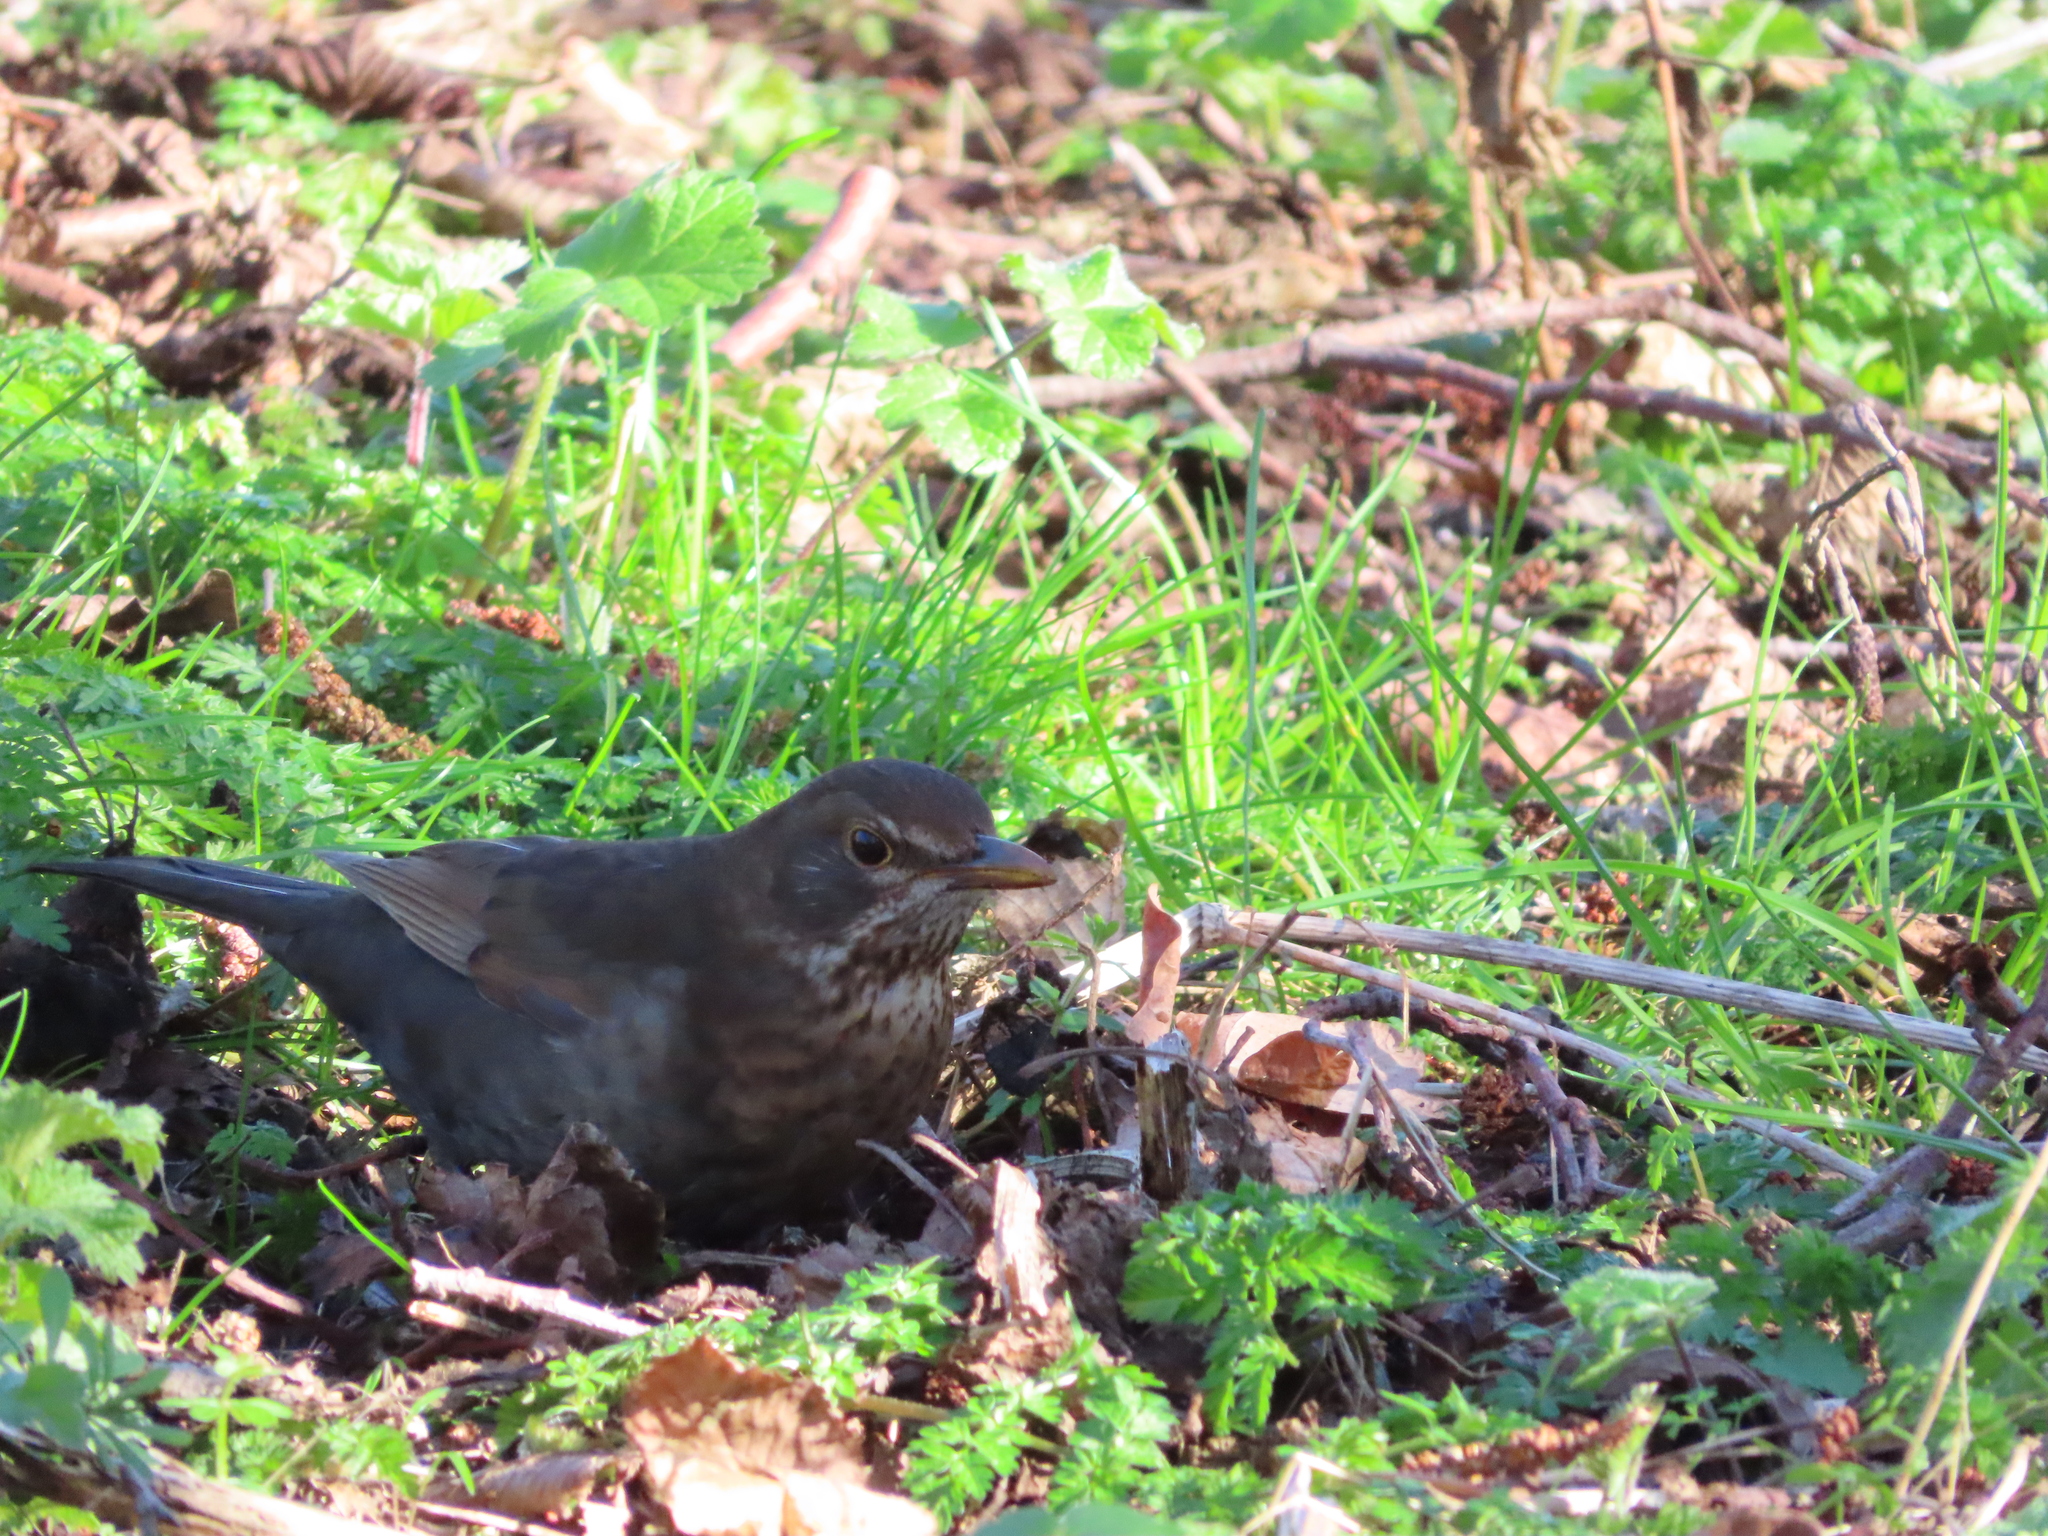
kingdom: Animalia
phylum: Chordata
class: Aves
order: Passeriformes
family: Turdidae
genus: Turdus
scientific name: Turdus merula
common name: Common blackbird
